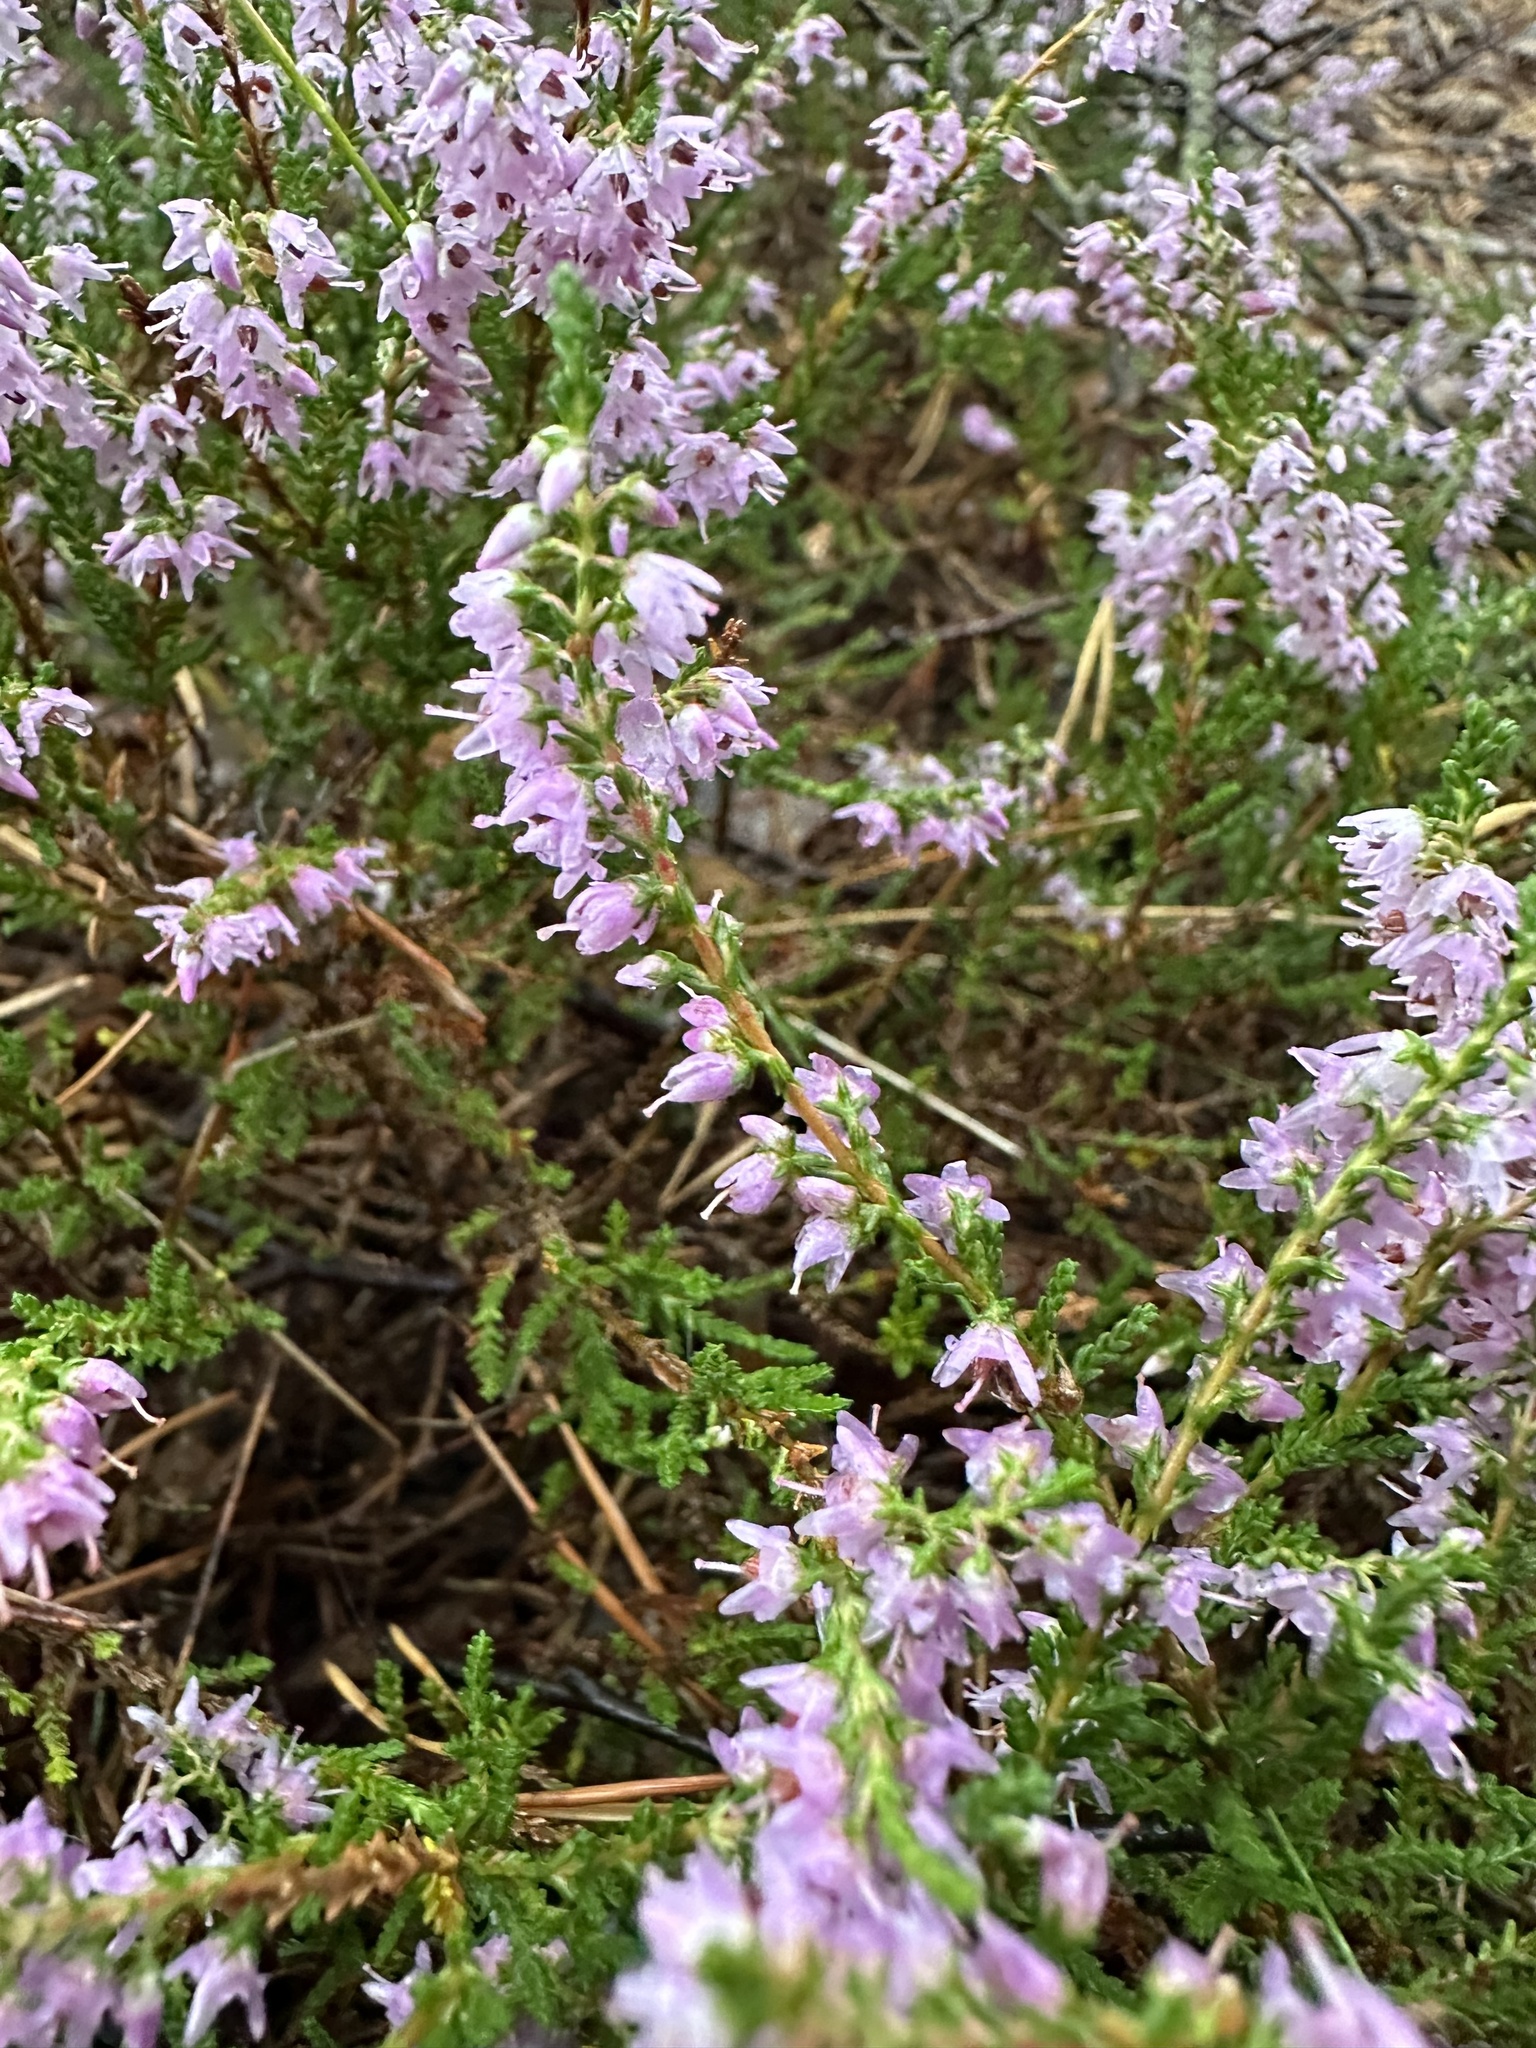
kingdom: Plantae
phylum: Tracheophyta
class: Magnoliopsida
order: Ericales
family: Ericaceae
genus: Calluna
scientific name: Calluna vulgaris
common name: Heather
